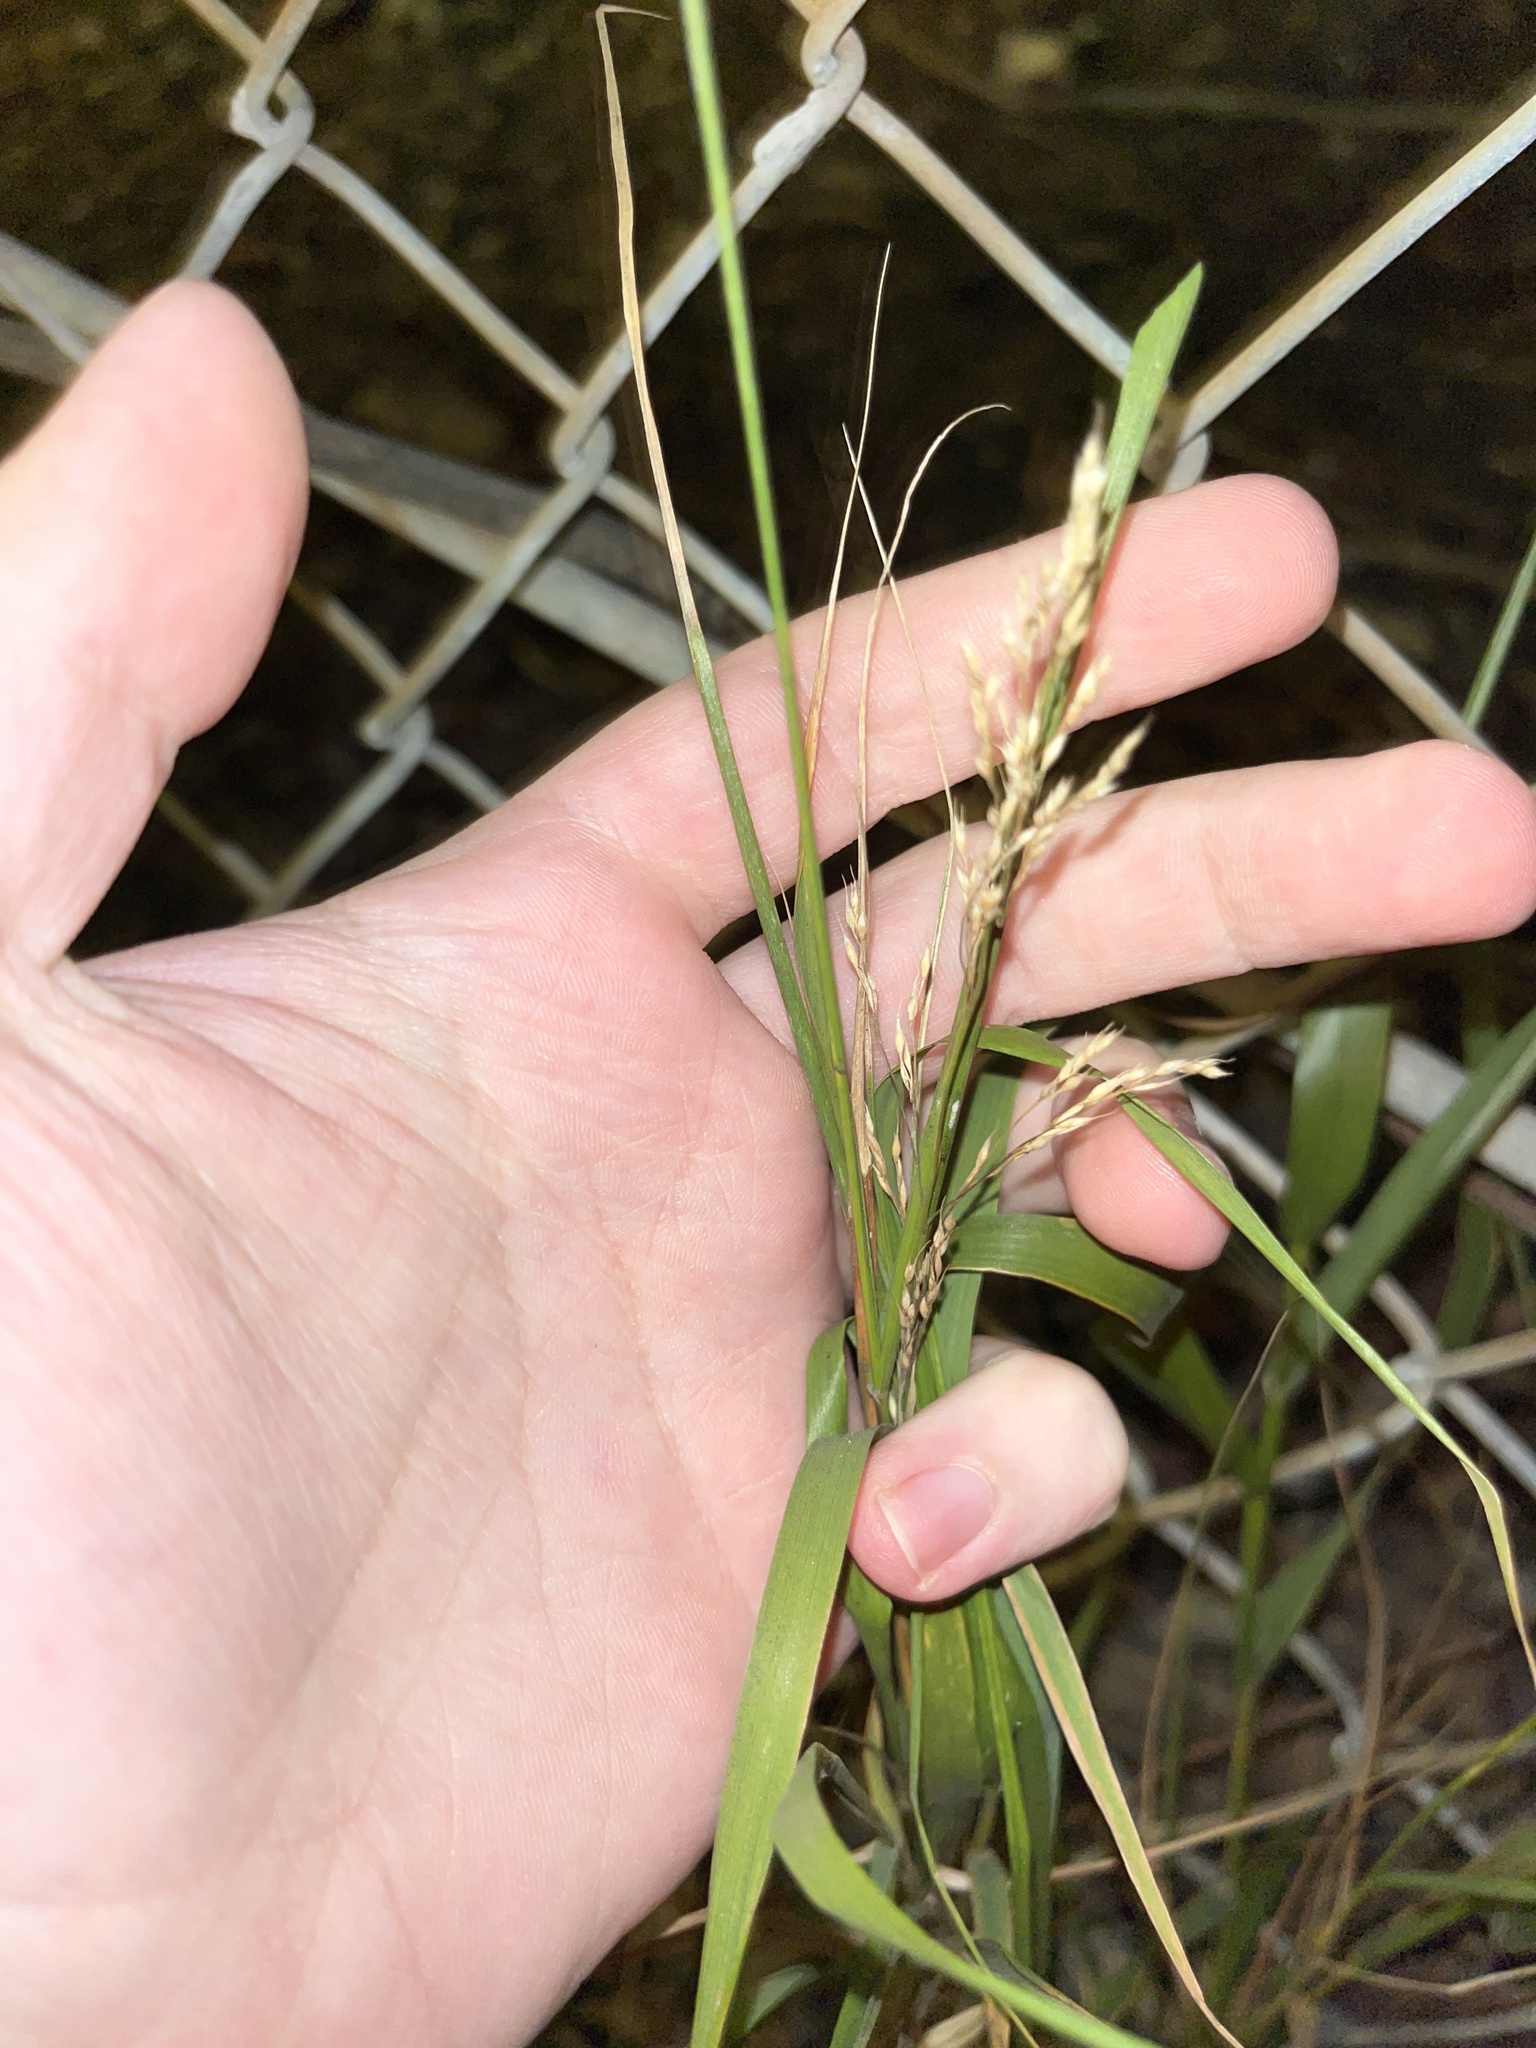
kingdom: Plantae
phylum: Tracheophyta
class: Liliopsida
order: Poales
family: Poaceae
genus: Oloptum
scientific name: Oloptum miliaceum
